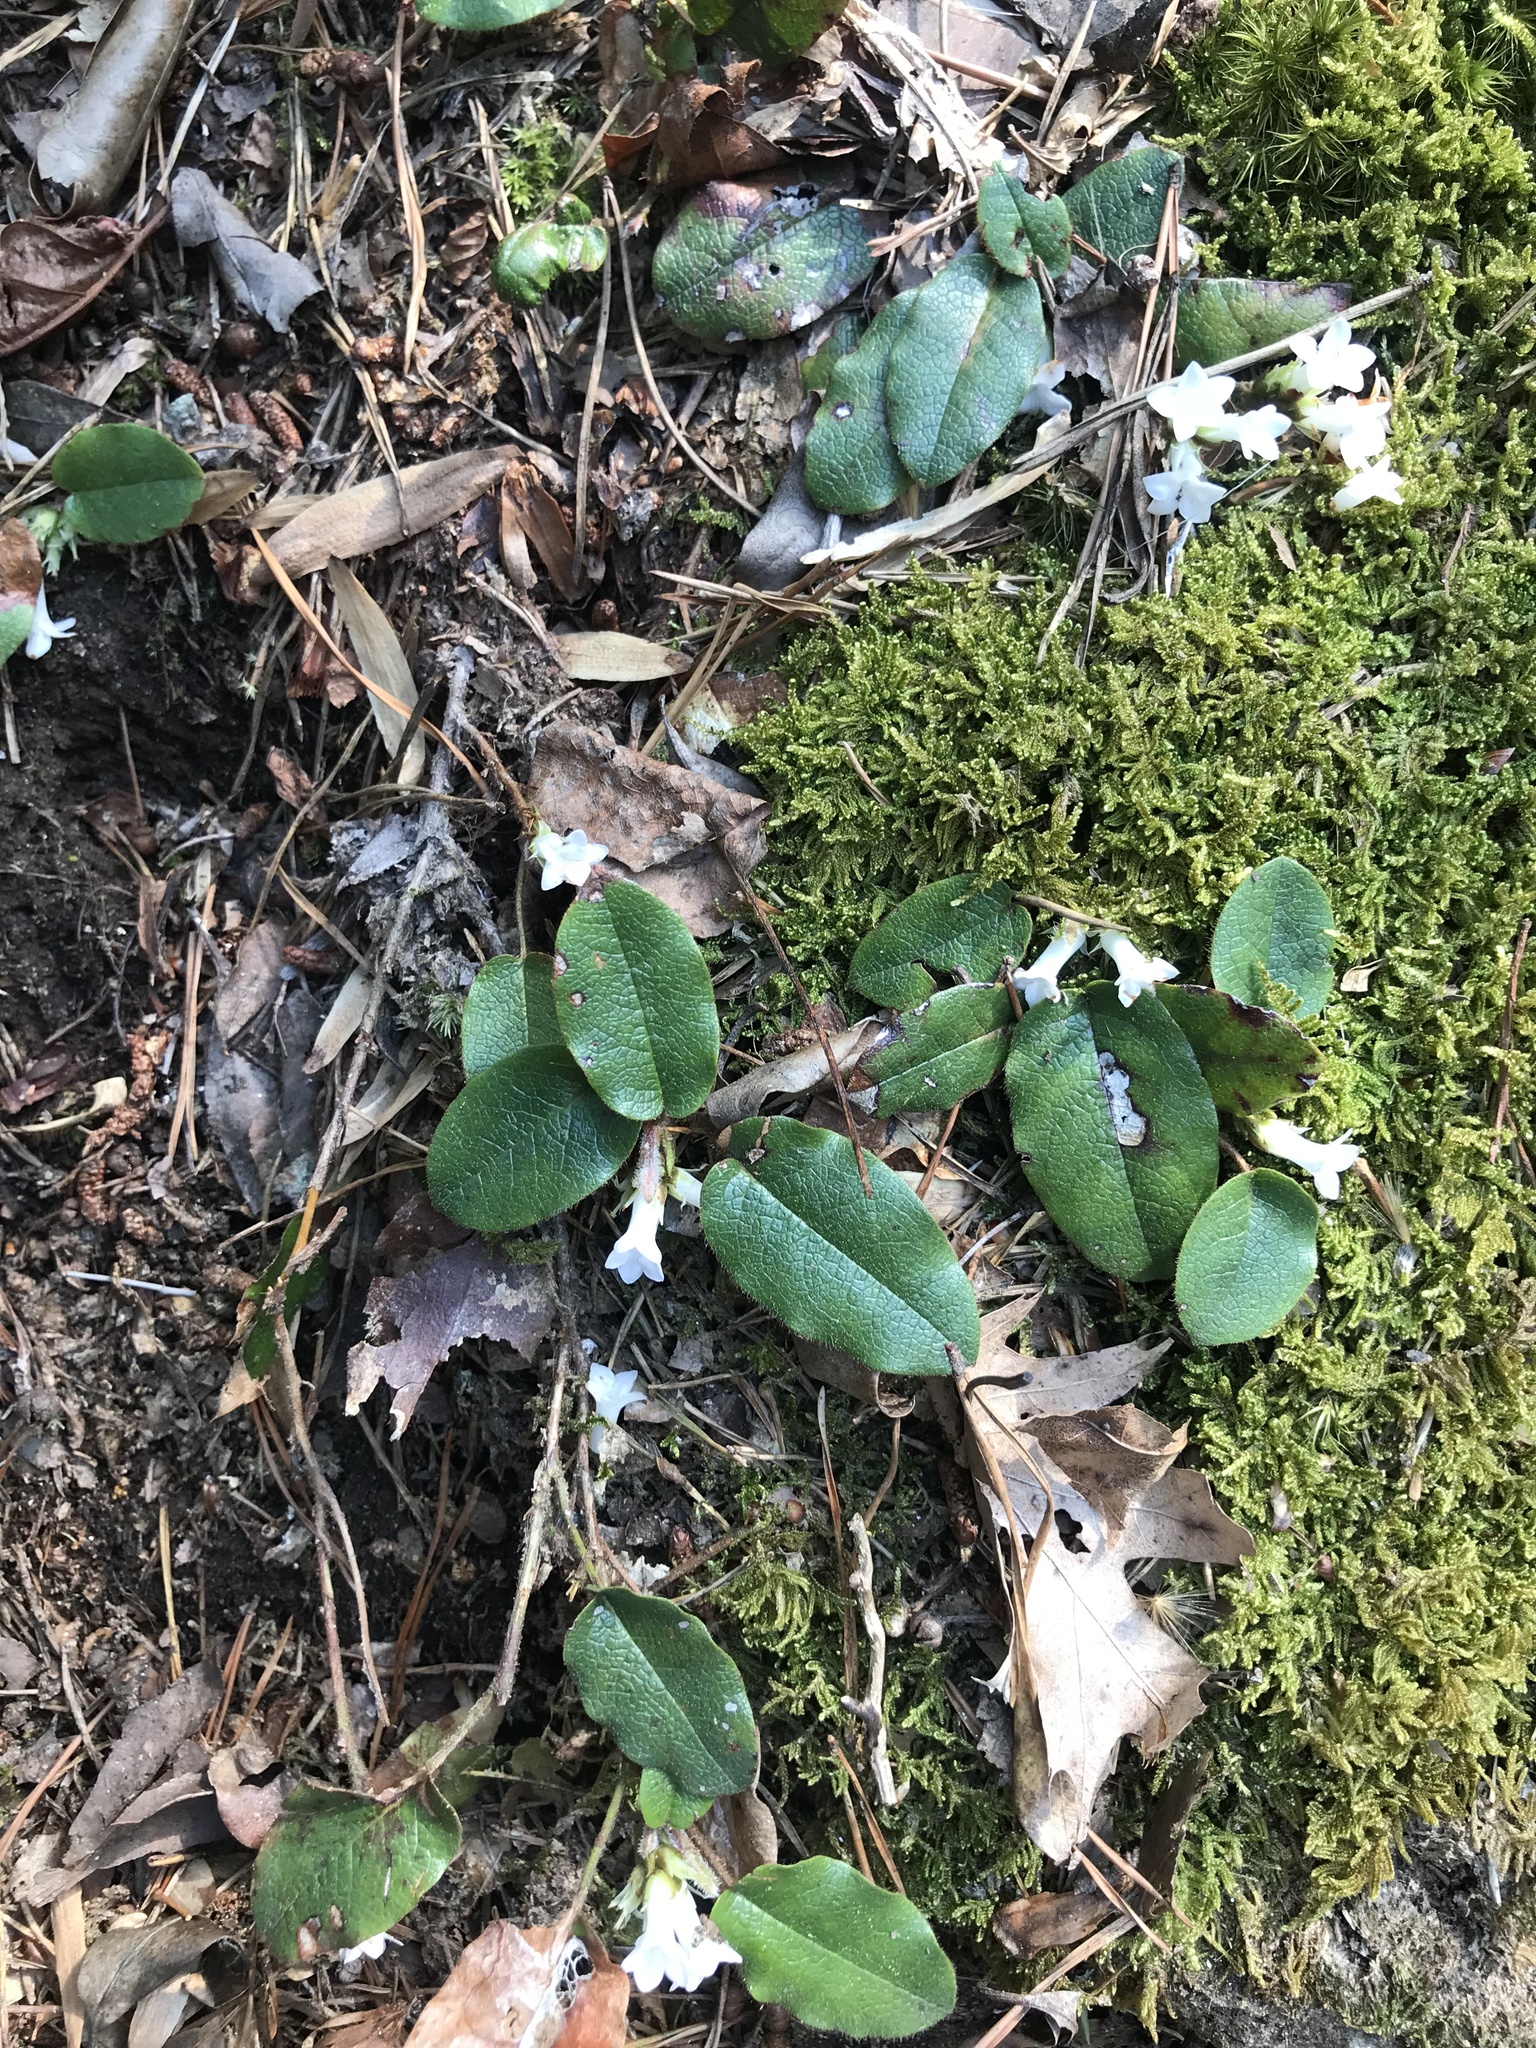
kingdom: Plantae
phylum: Tracheophyta
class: Magnoliopsida
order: Ericales
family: Ericaceae
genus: Epigaea
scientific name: Epigaea repens
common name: Gravelroot
